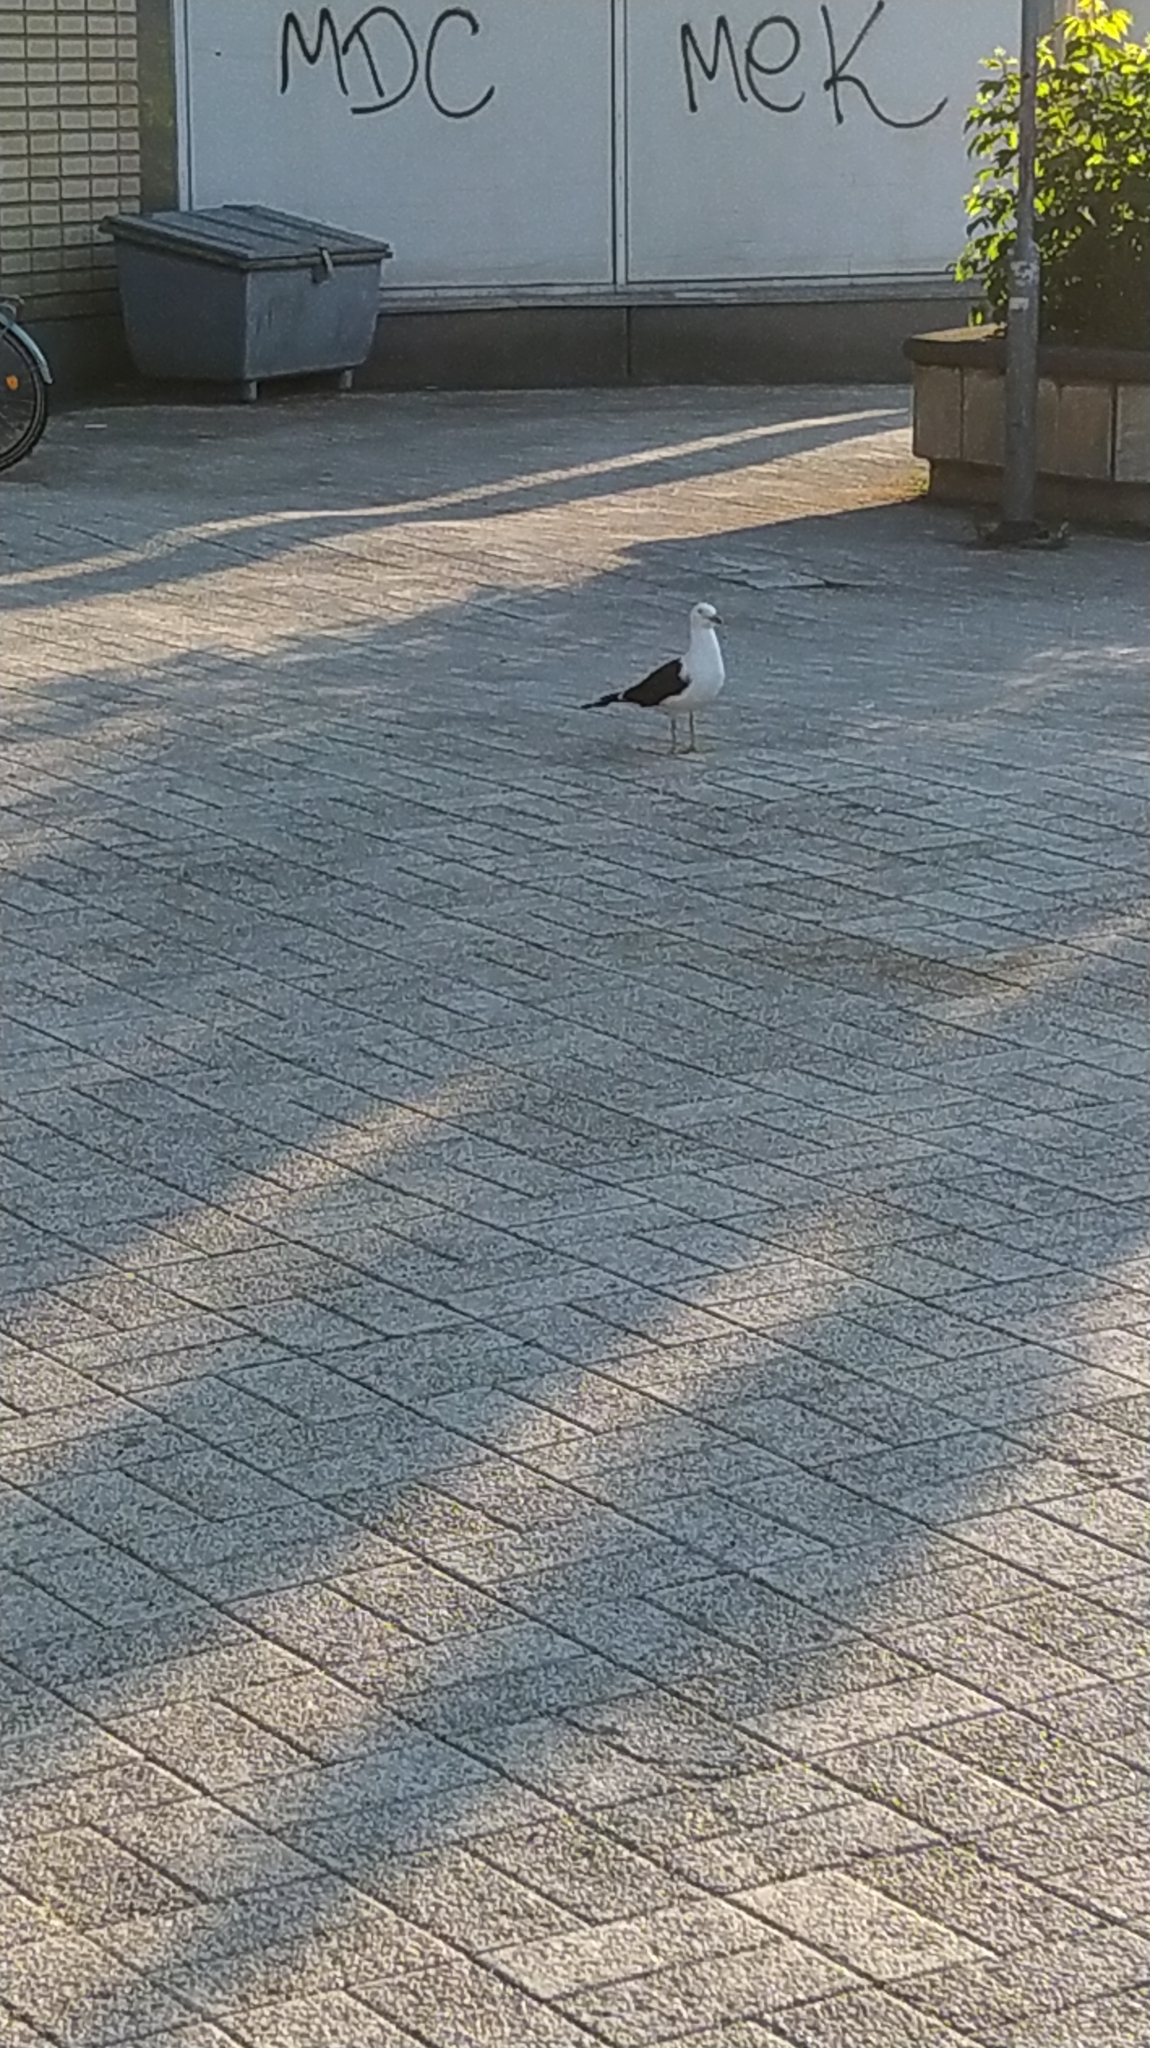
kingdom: Animalia
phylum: Chordata
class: Aves
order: Charadriiformes
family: Laridae
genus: Larus
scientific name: Larus fuscus
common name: Lesser black-backed gull
